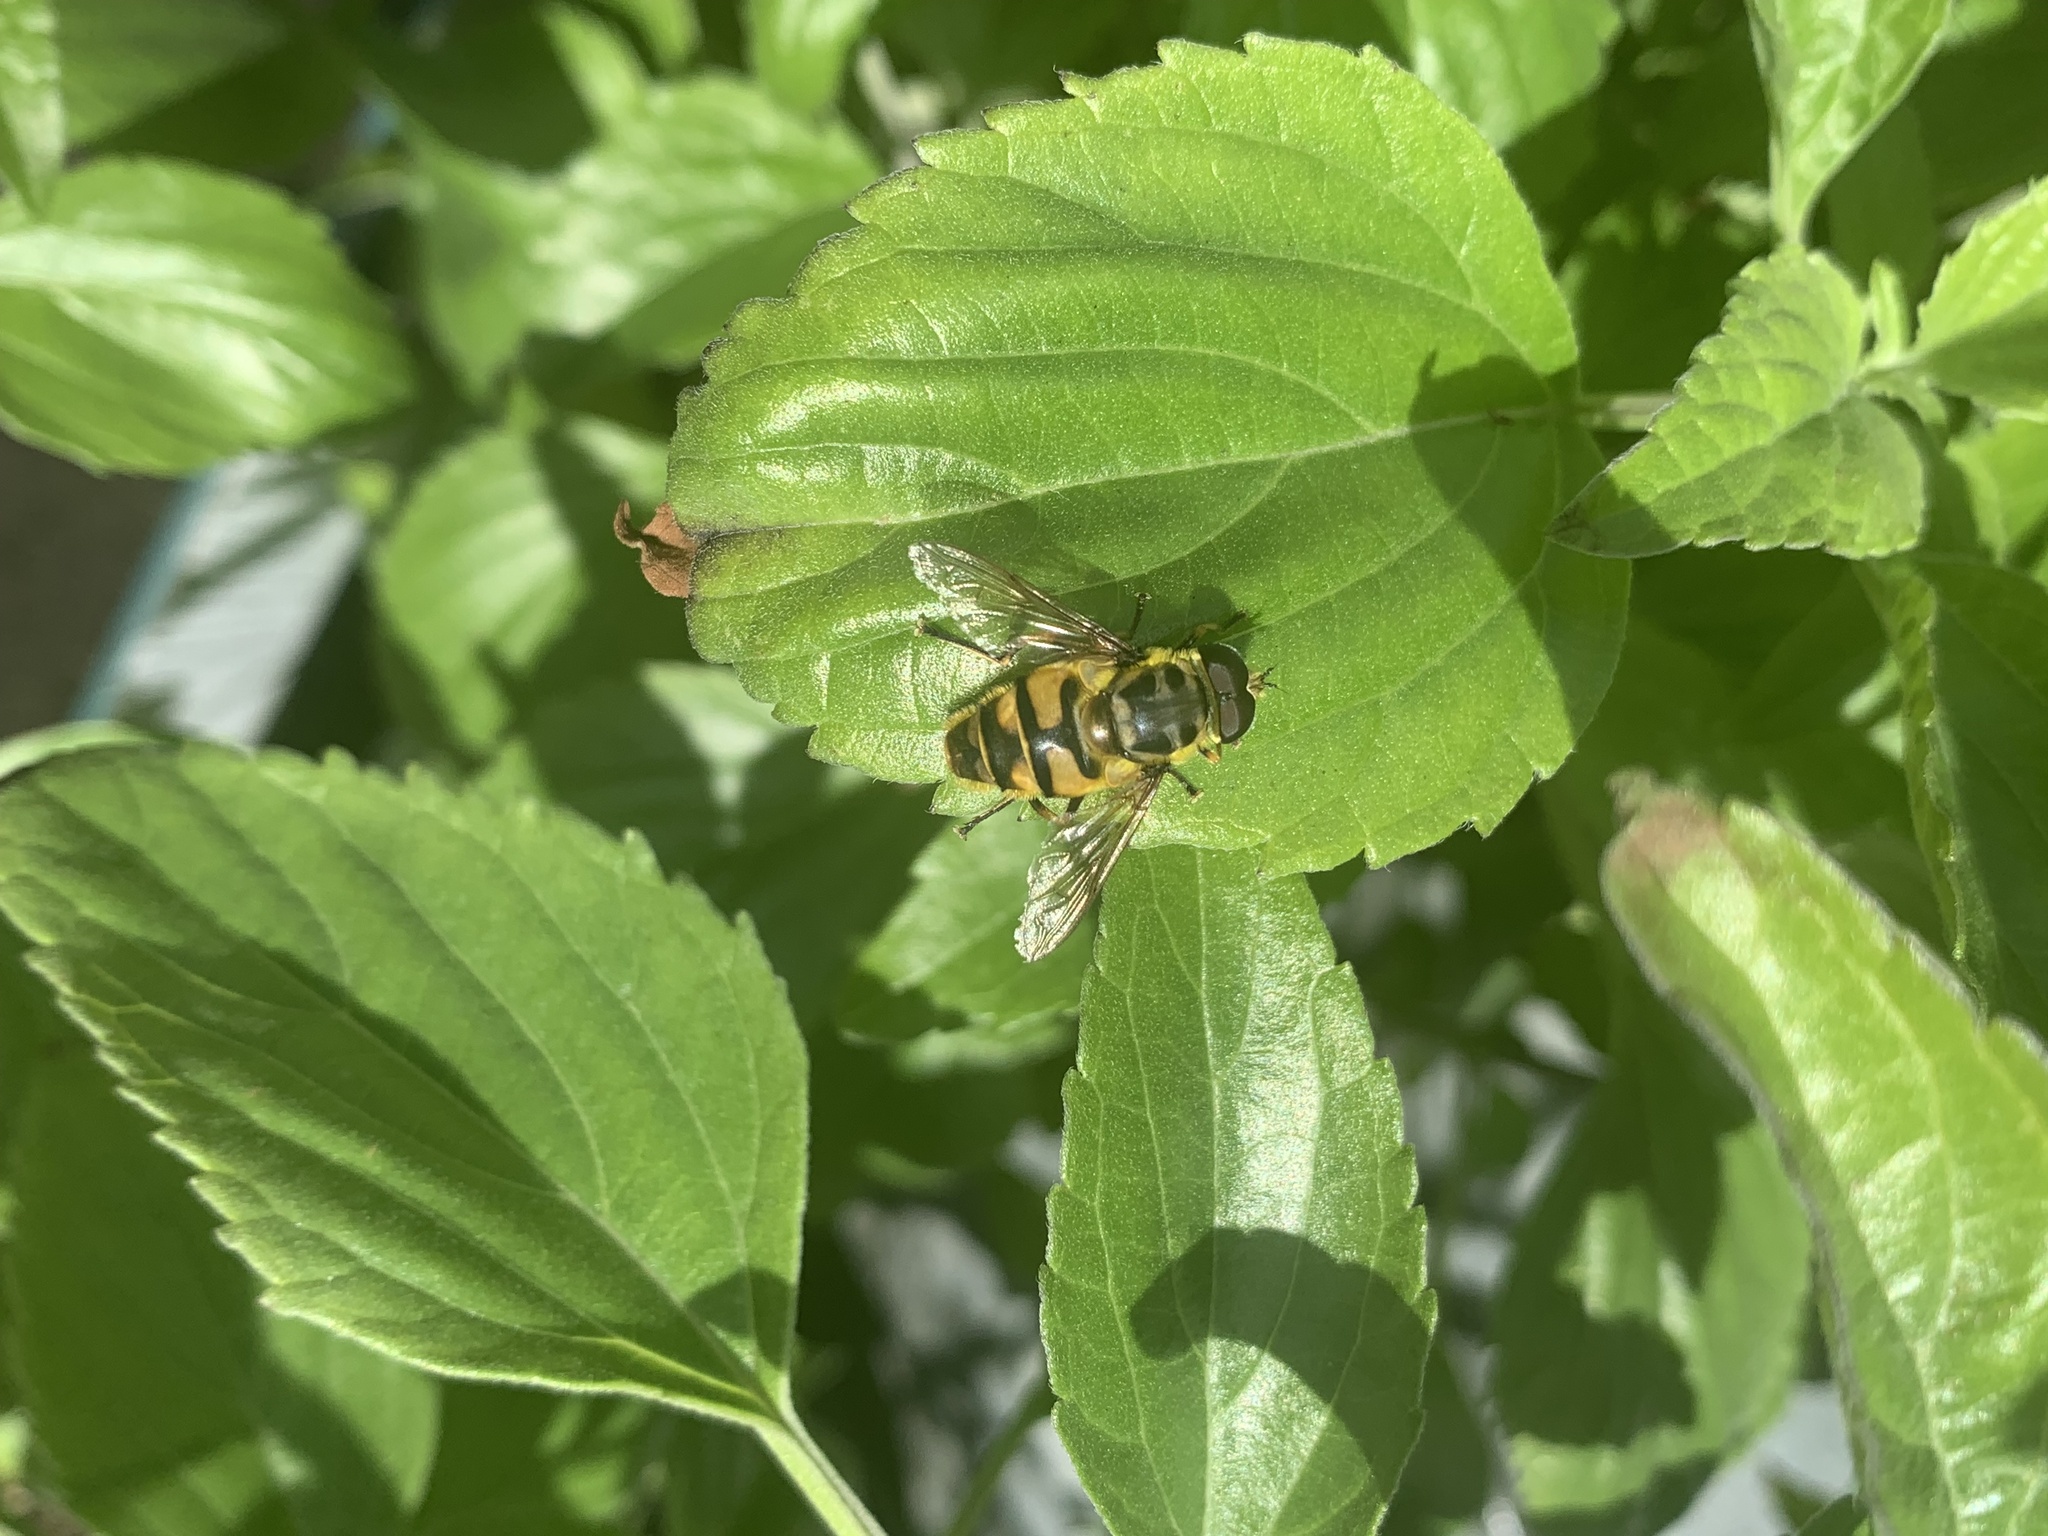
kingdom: Animalia
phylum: Arthropoda
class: Insecta
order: Diptera
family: Syrphidae
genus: Myathropa
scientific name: Myathropa florea
